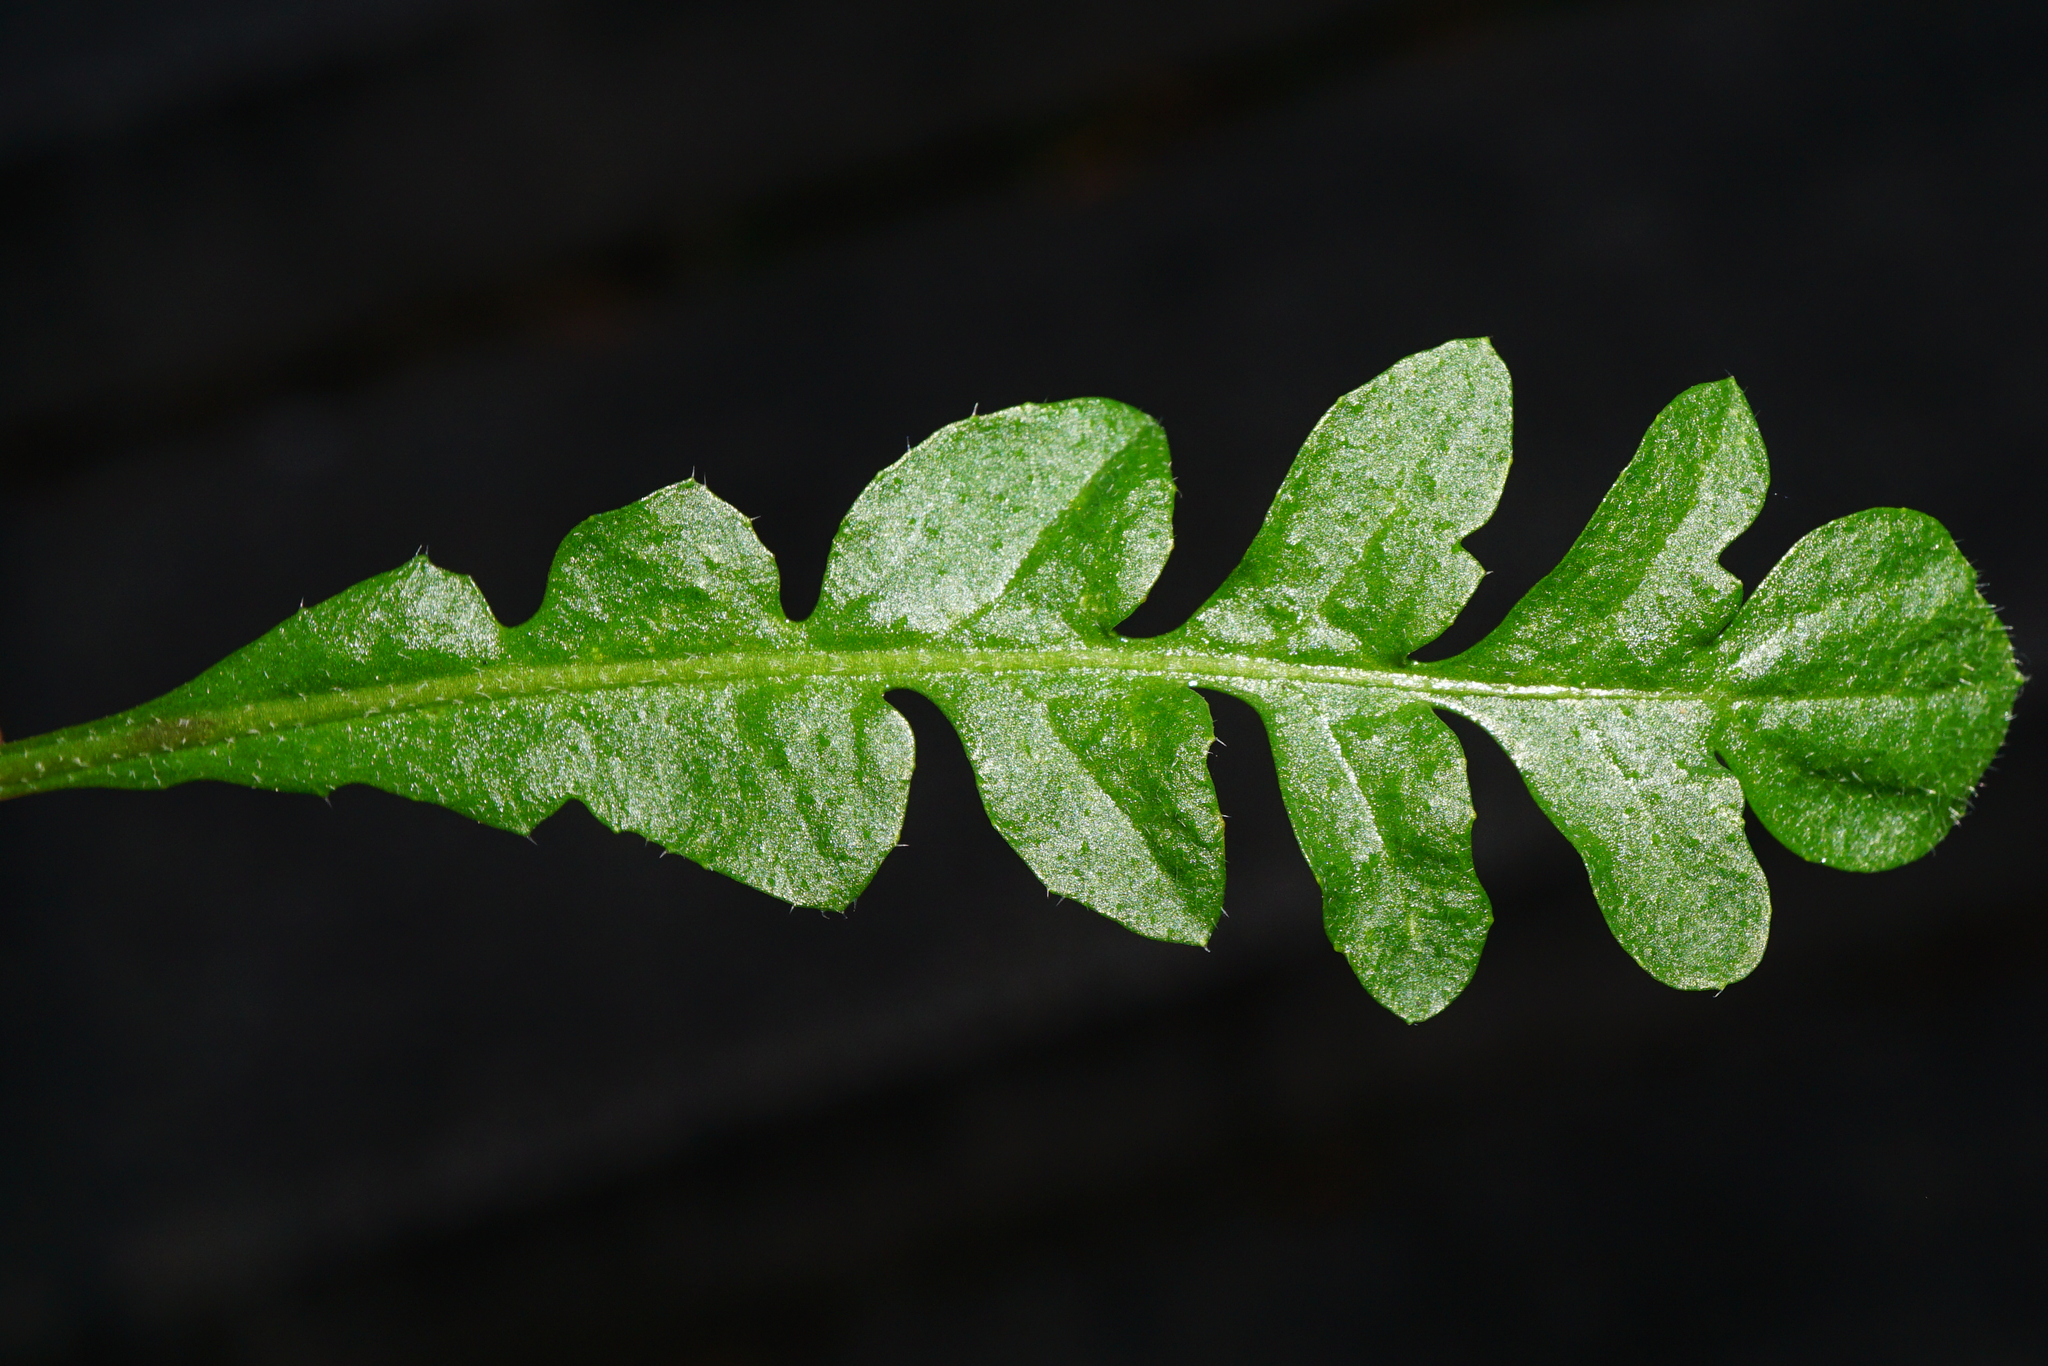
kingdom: Plantae
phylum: Tracheophyta
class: Magnoliopsida
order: Brassicales
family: Brassicaceae
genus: Capsella
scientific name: Capsella bursa-pastoris
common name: Shepherd's purse
